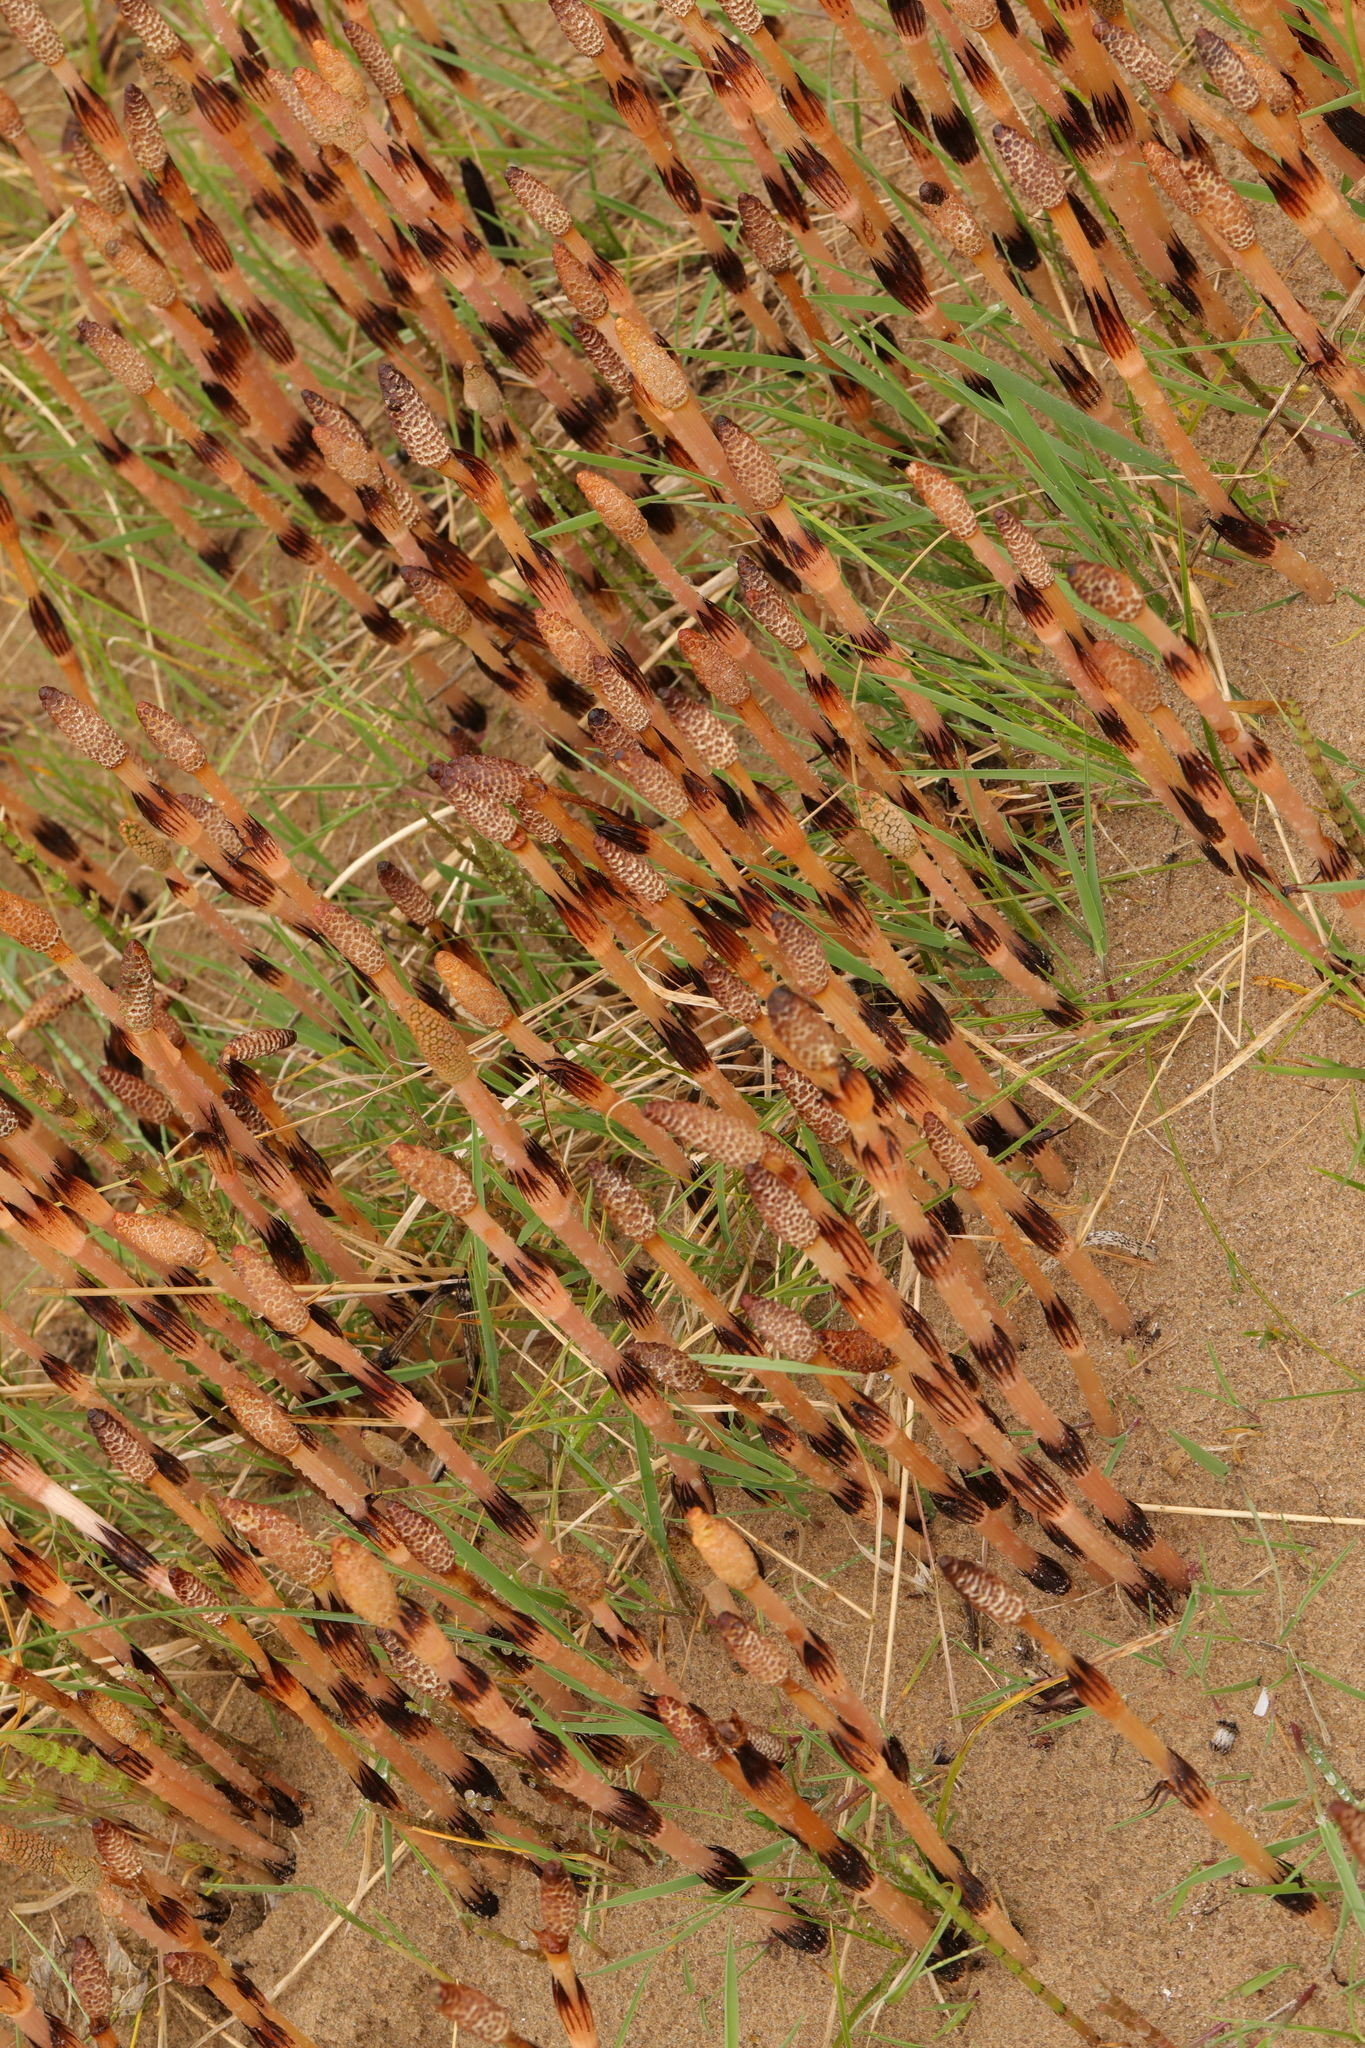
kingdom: Plantae
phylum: Tracheophyta
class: Polypodiopsida
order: Equisetales
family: Equisetaceae
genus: Equisetum
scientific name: Equisetum arvense
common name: Field horsetail
